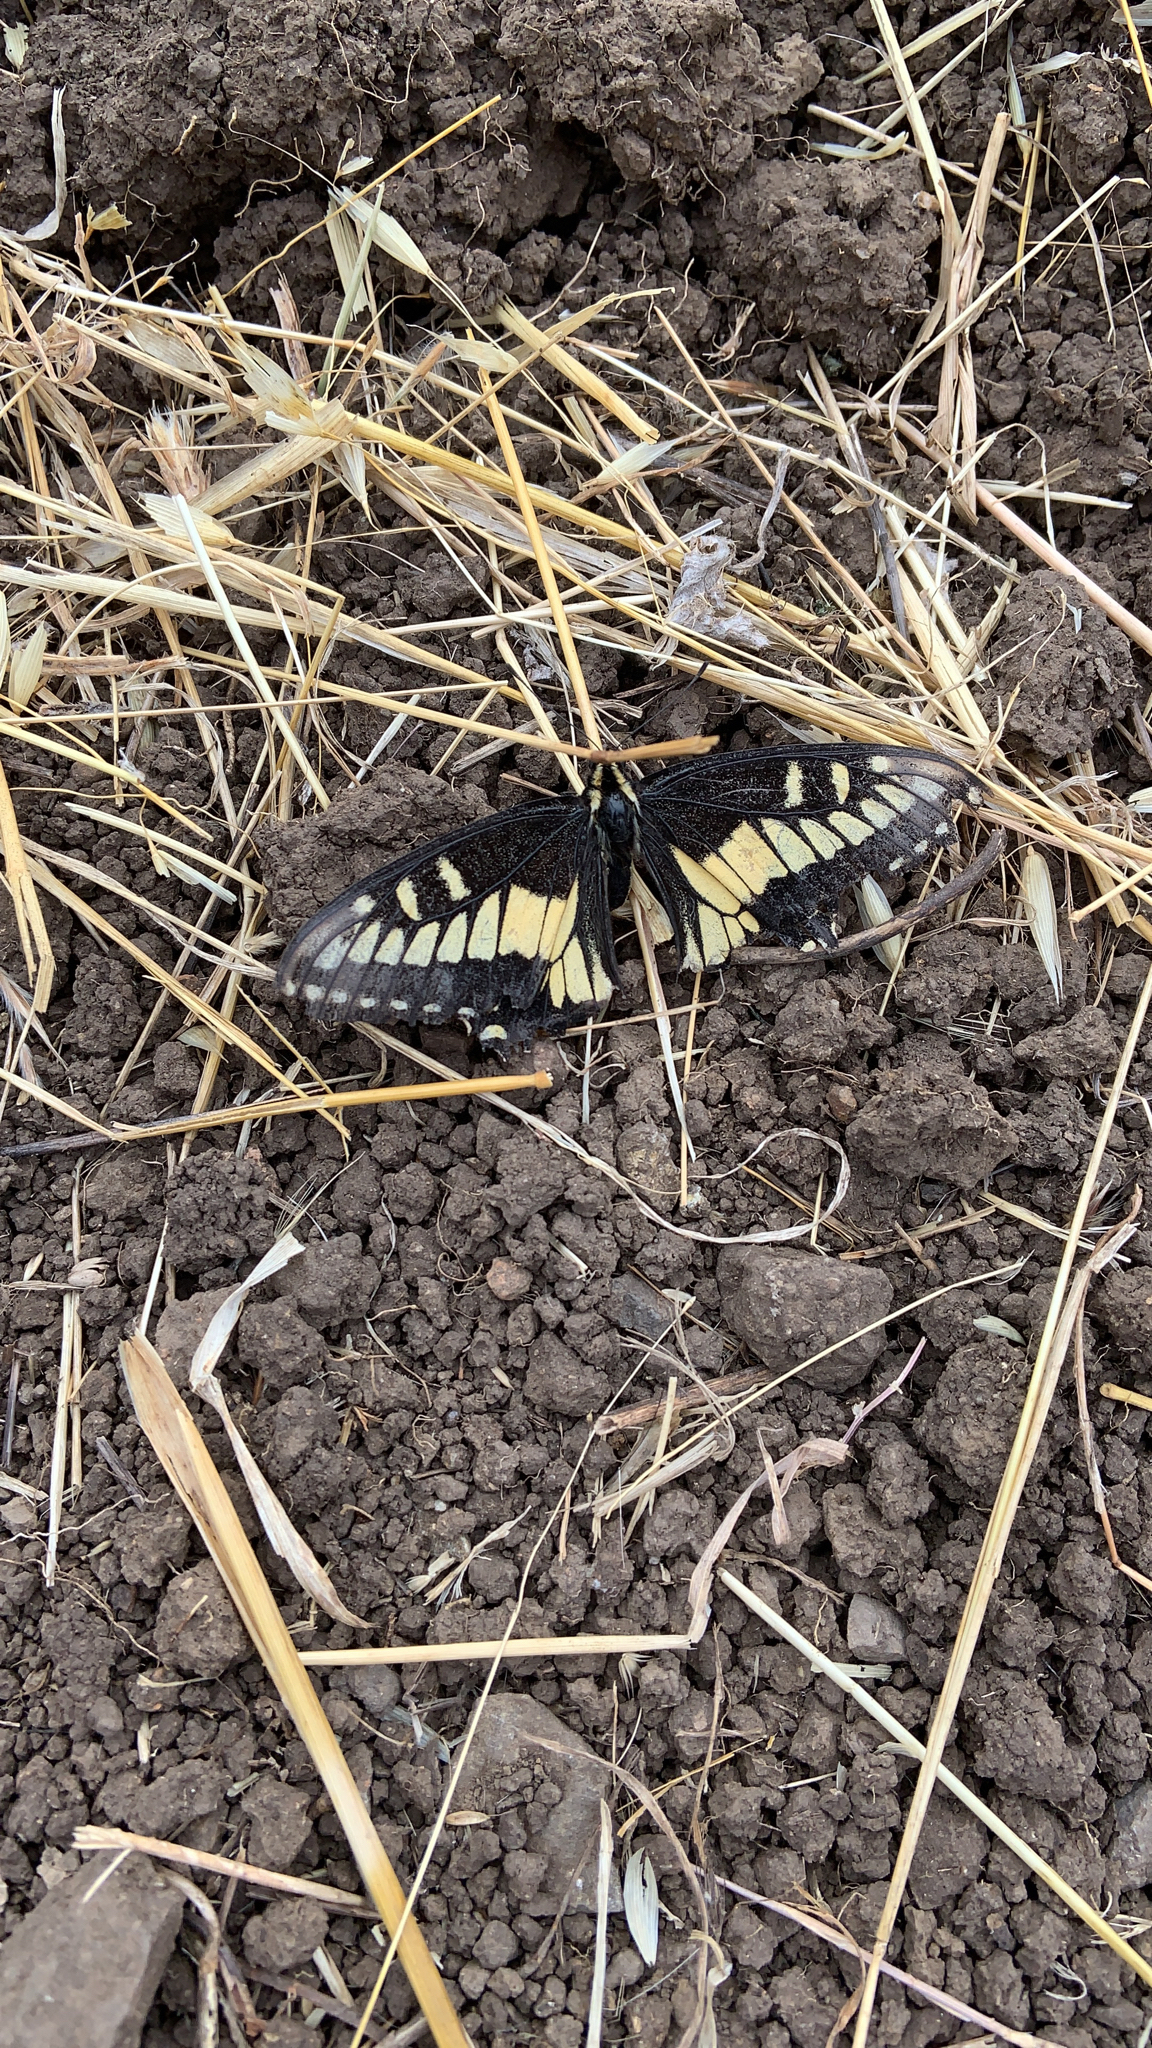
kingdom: Animalia
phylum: Arthropoda
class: Insecta
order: Lepidoptera
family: Papilionidae
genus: Papilio
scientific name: Papilio zelicaon
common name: Anise swallowtail
